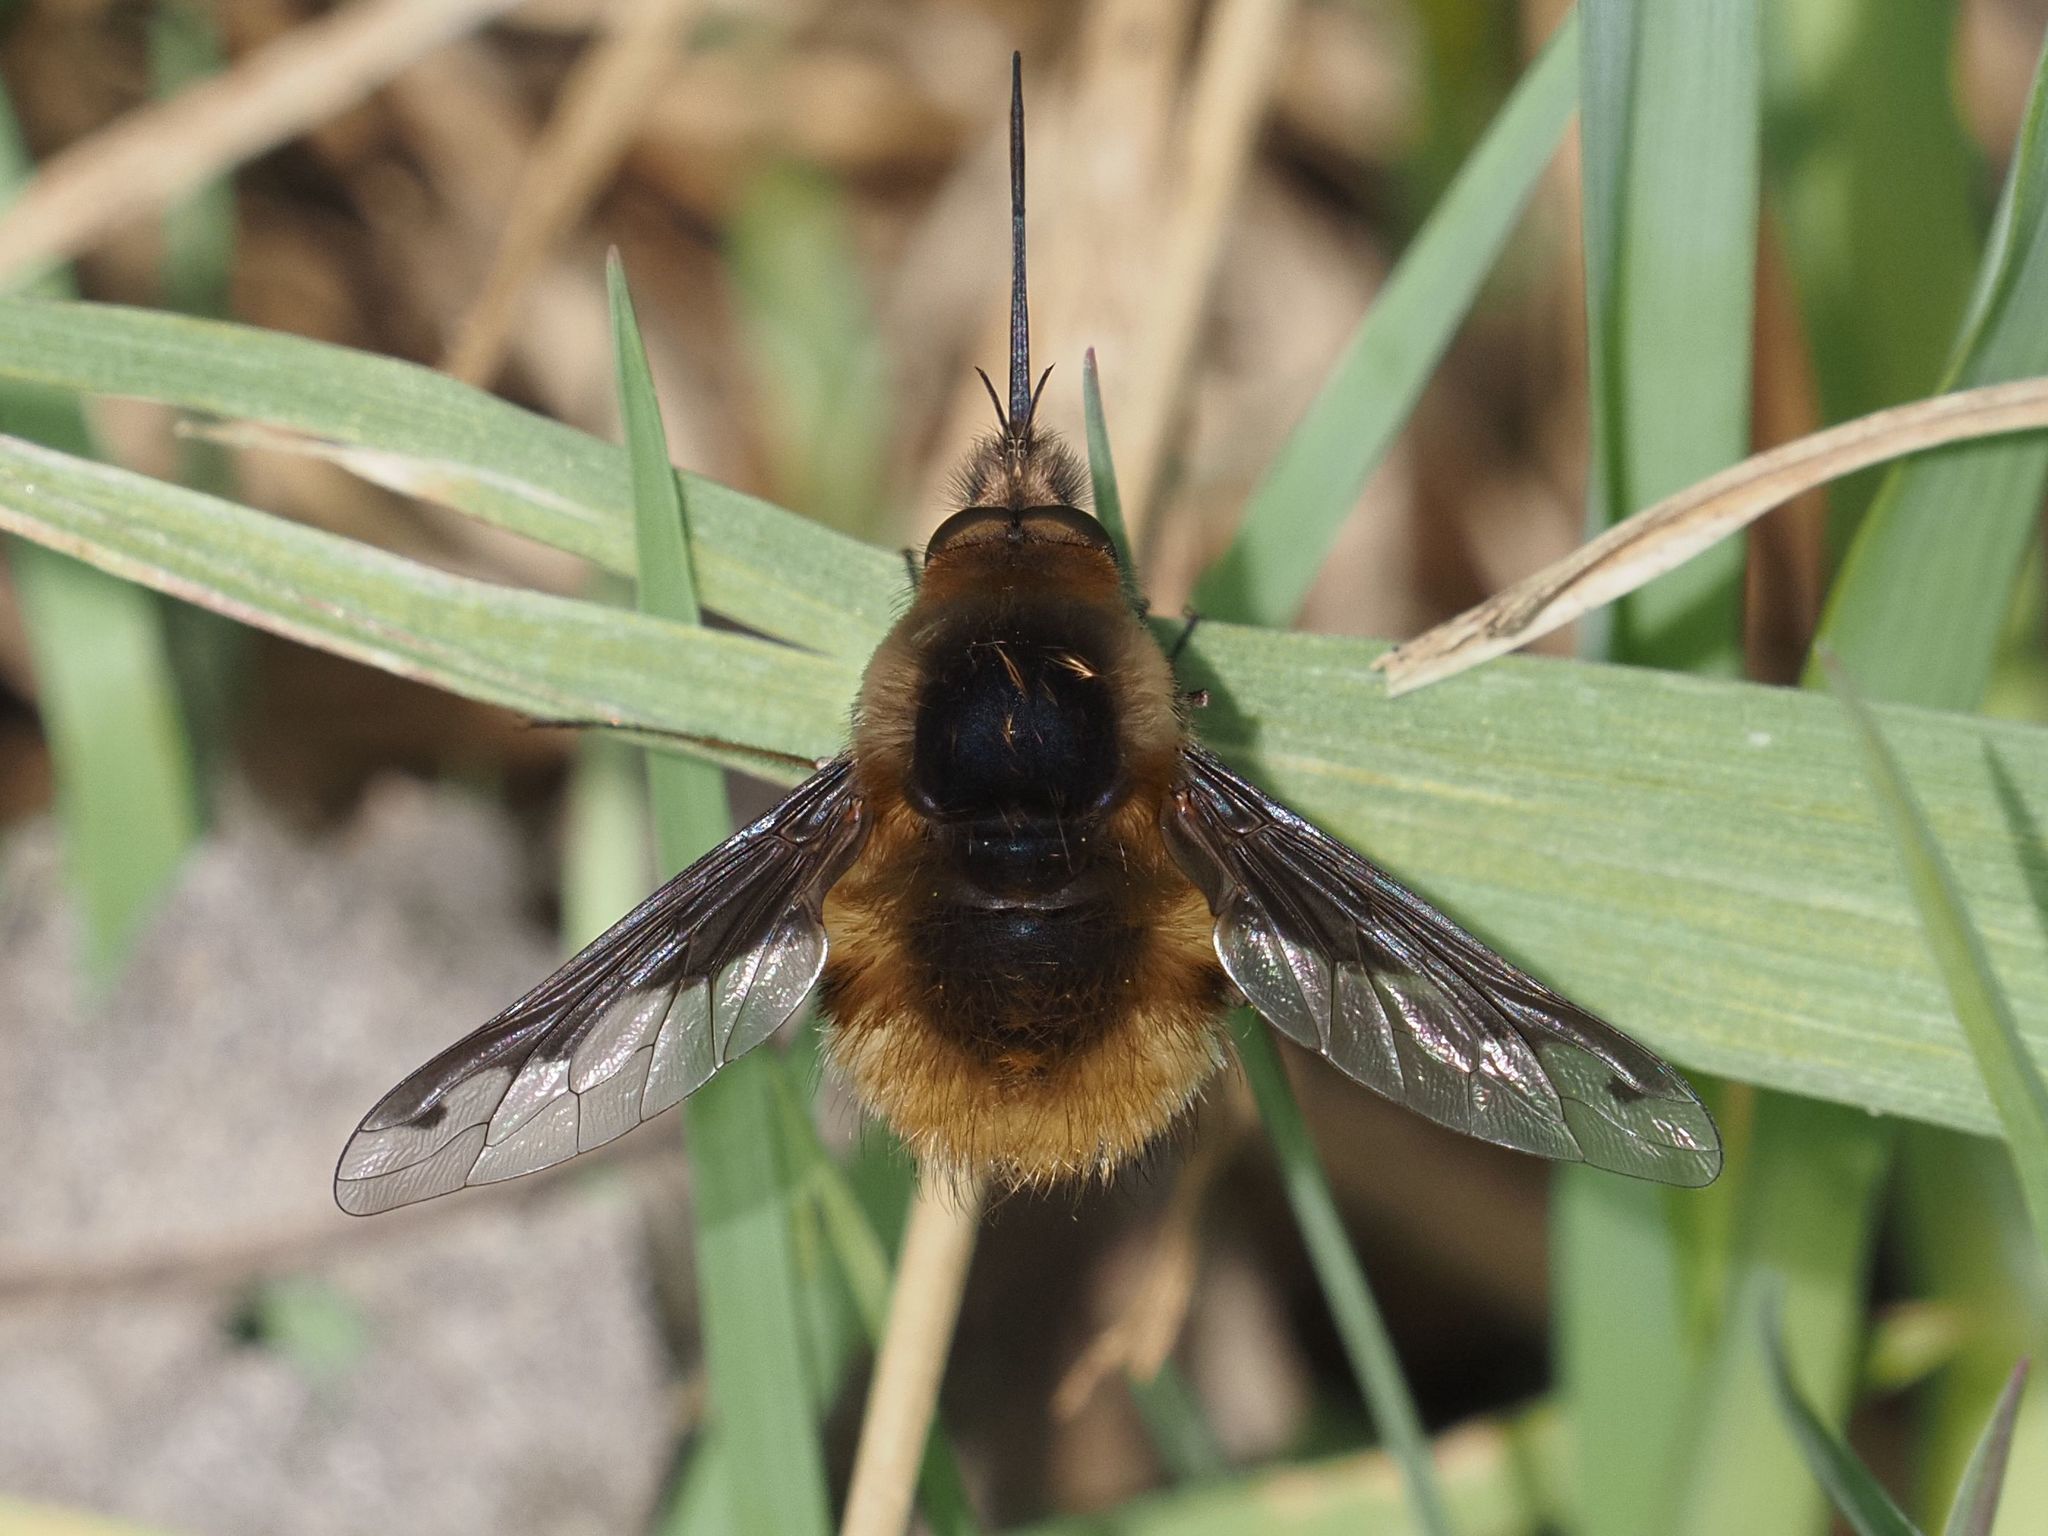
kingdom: Animalia
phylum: Arthropoda
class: Insecta
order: Diptera
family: Bombyliidae
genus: Bombylius
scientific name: Bombylius major
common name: Bee fly
